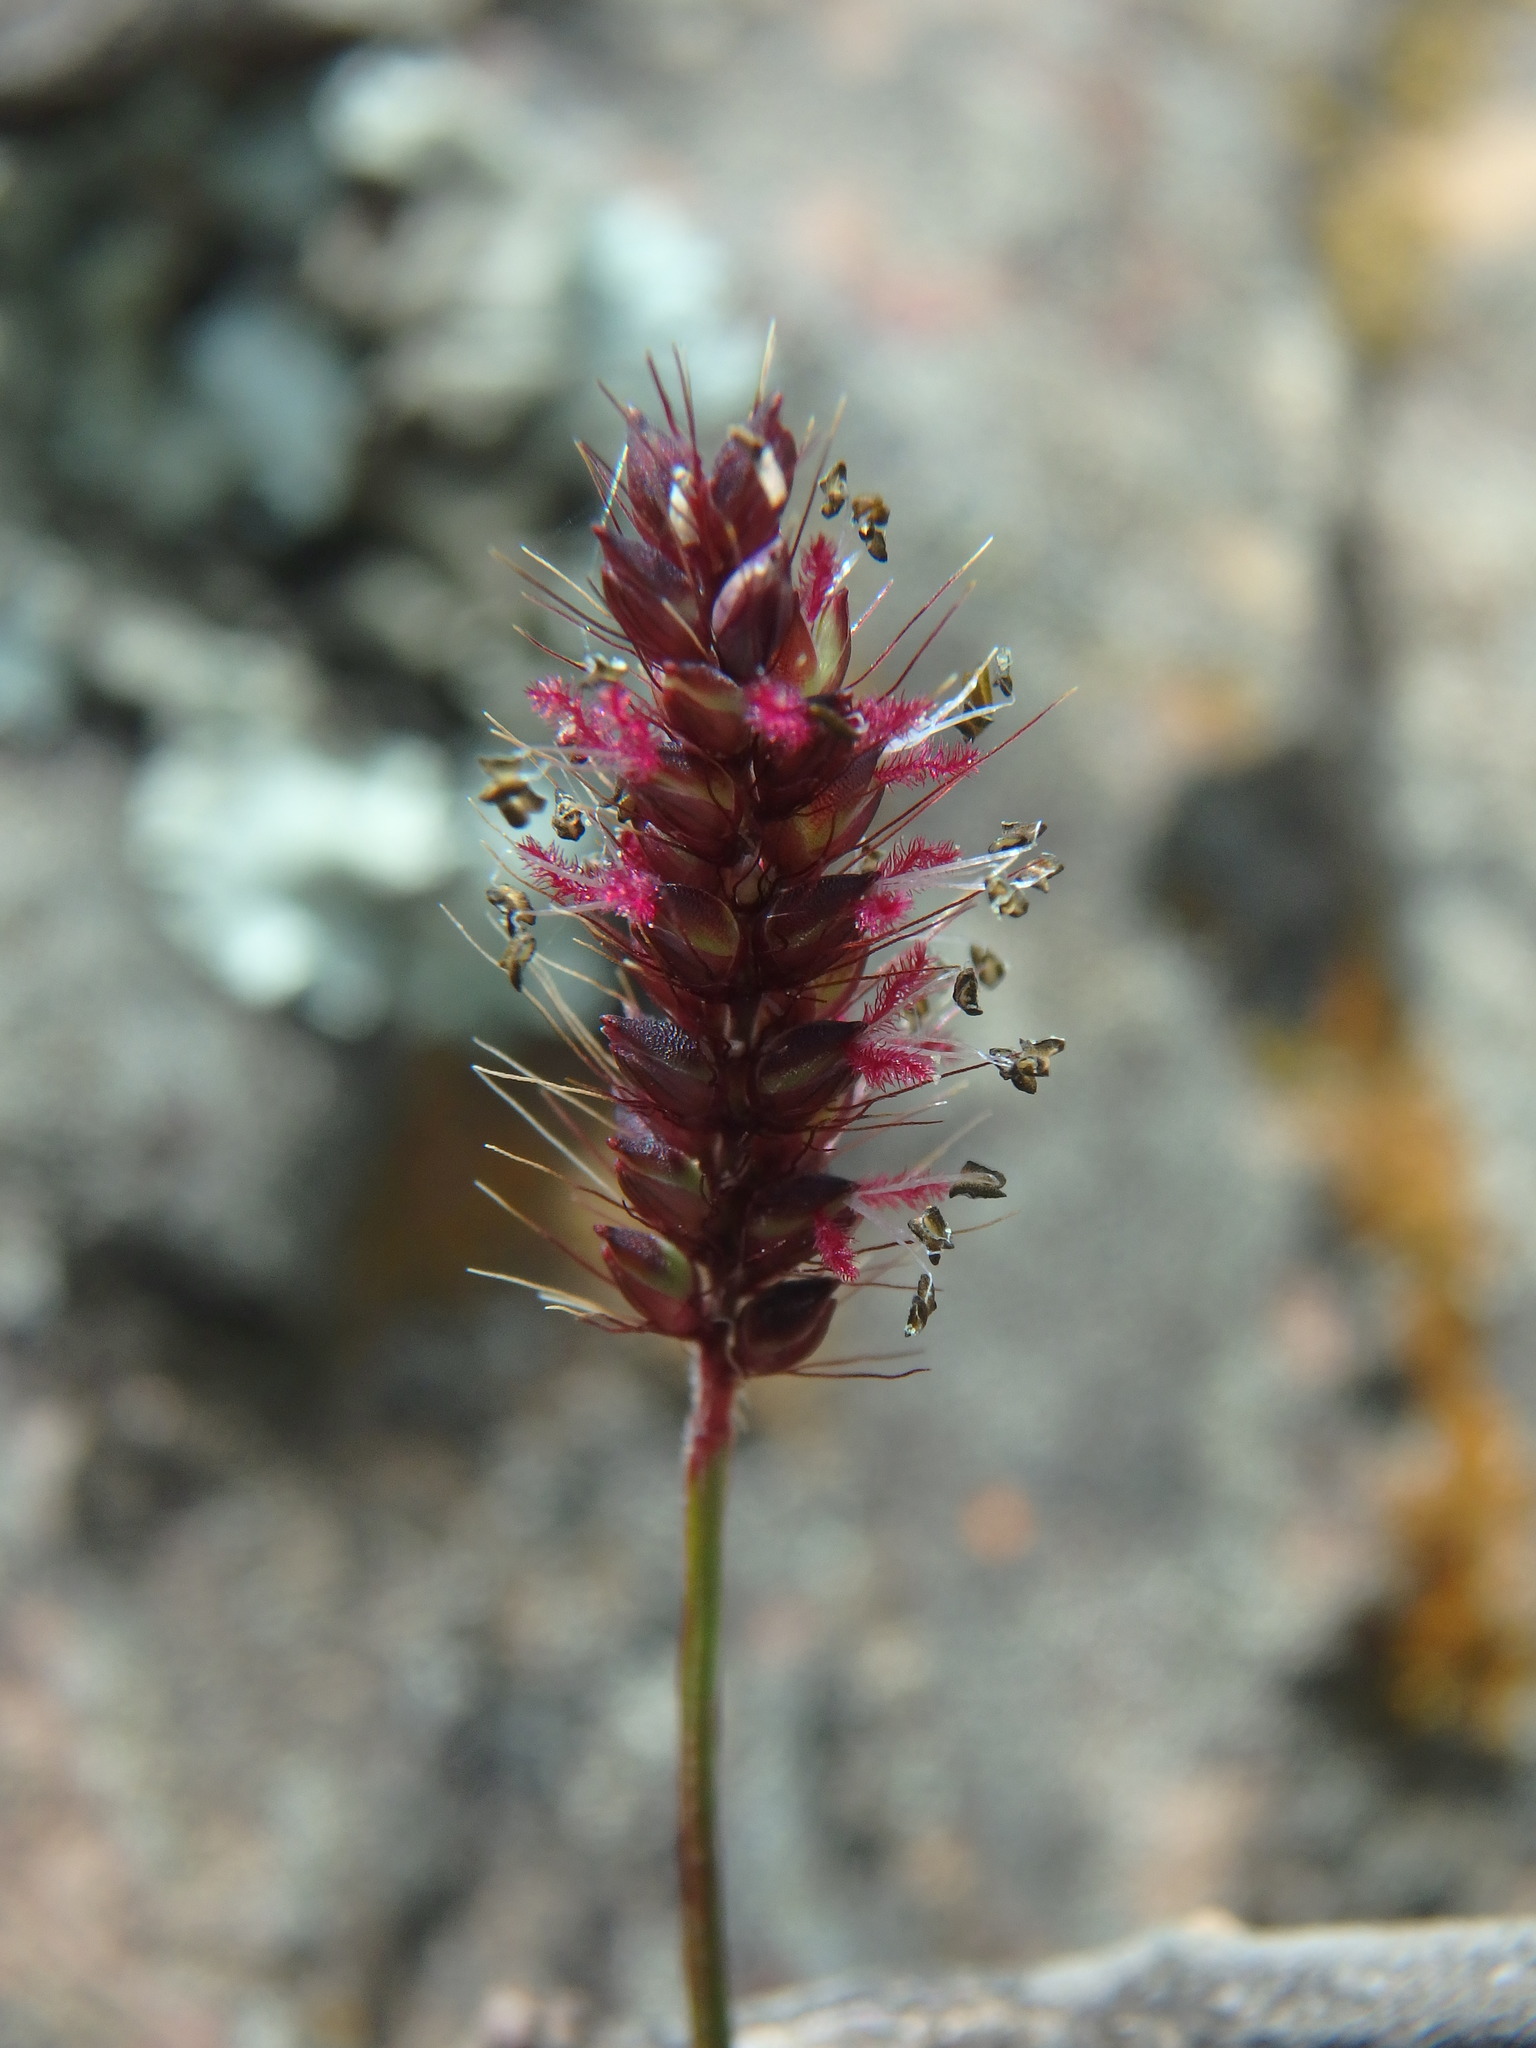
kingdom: Plantae
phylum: Tracheophyta
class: Liliopsida
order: Poales
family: Poaceae
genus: Setaria
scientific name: Setaria parviflora
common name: Knotroot bristle-grass
